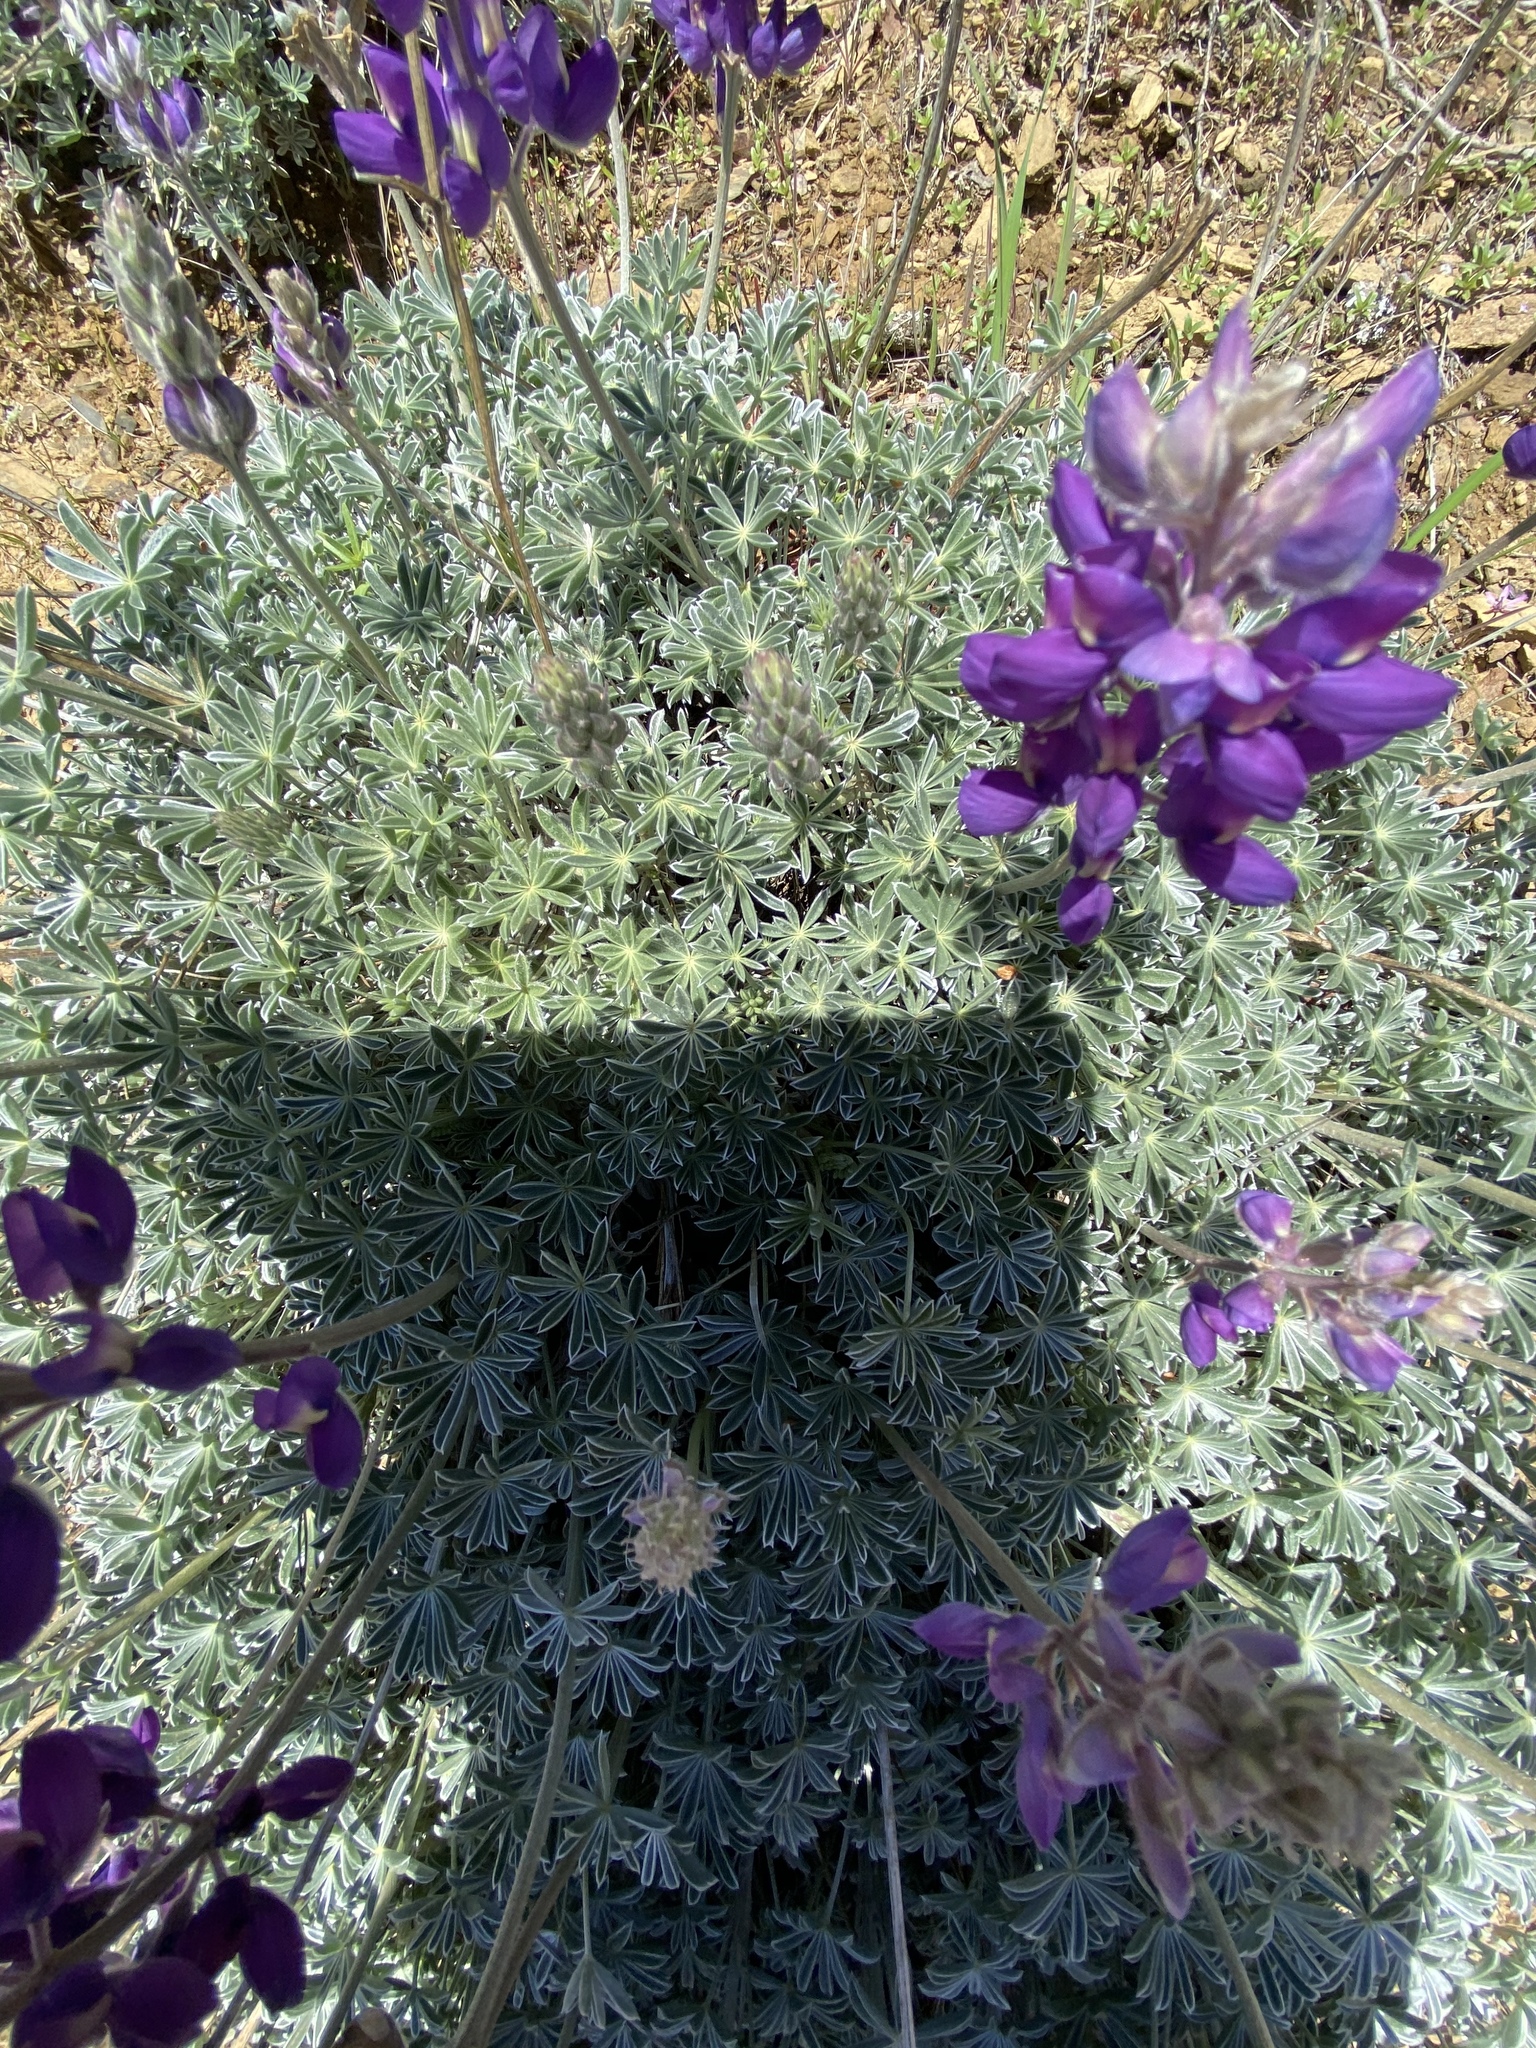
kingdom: Plantae
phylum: Tracheophyta
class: Magnoliopsida
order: Fabales
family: Fabaceae
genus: Lupinus
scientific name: Lupinus albifrons
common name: Foothill lupine
